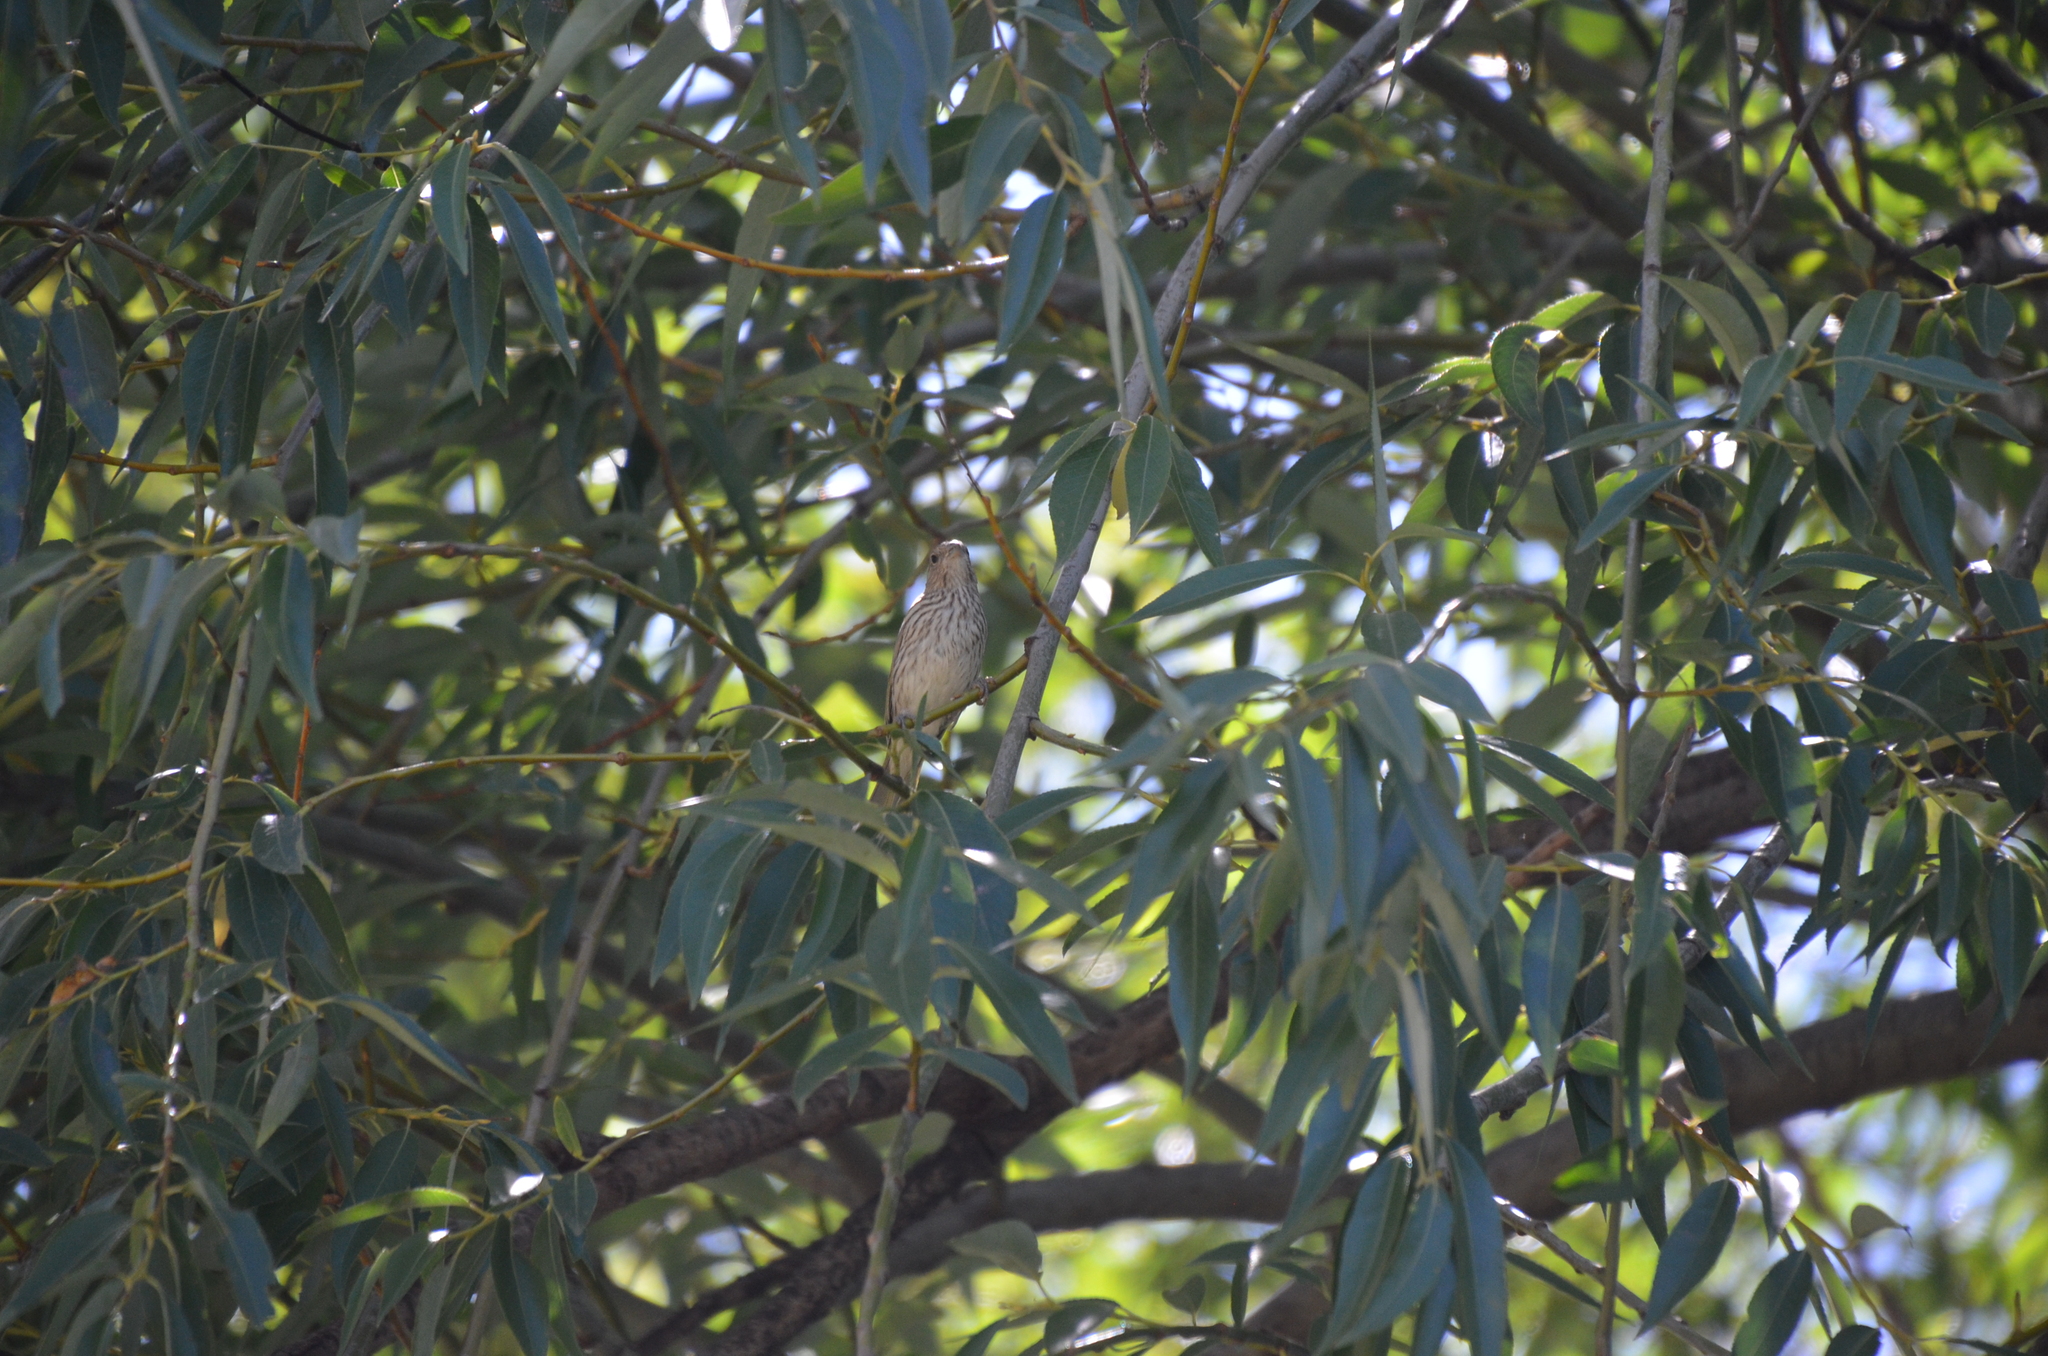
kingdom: Animalia
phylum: Chordata
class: Aves
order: Passeriformes
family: Thraupidae
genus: Sicalis
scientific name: Sicalis flaveola
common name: Saffron finch
